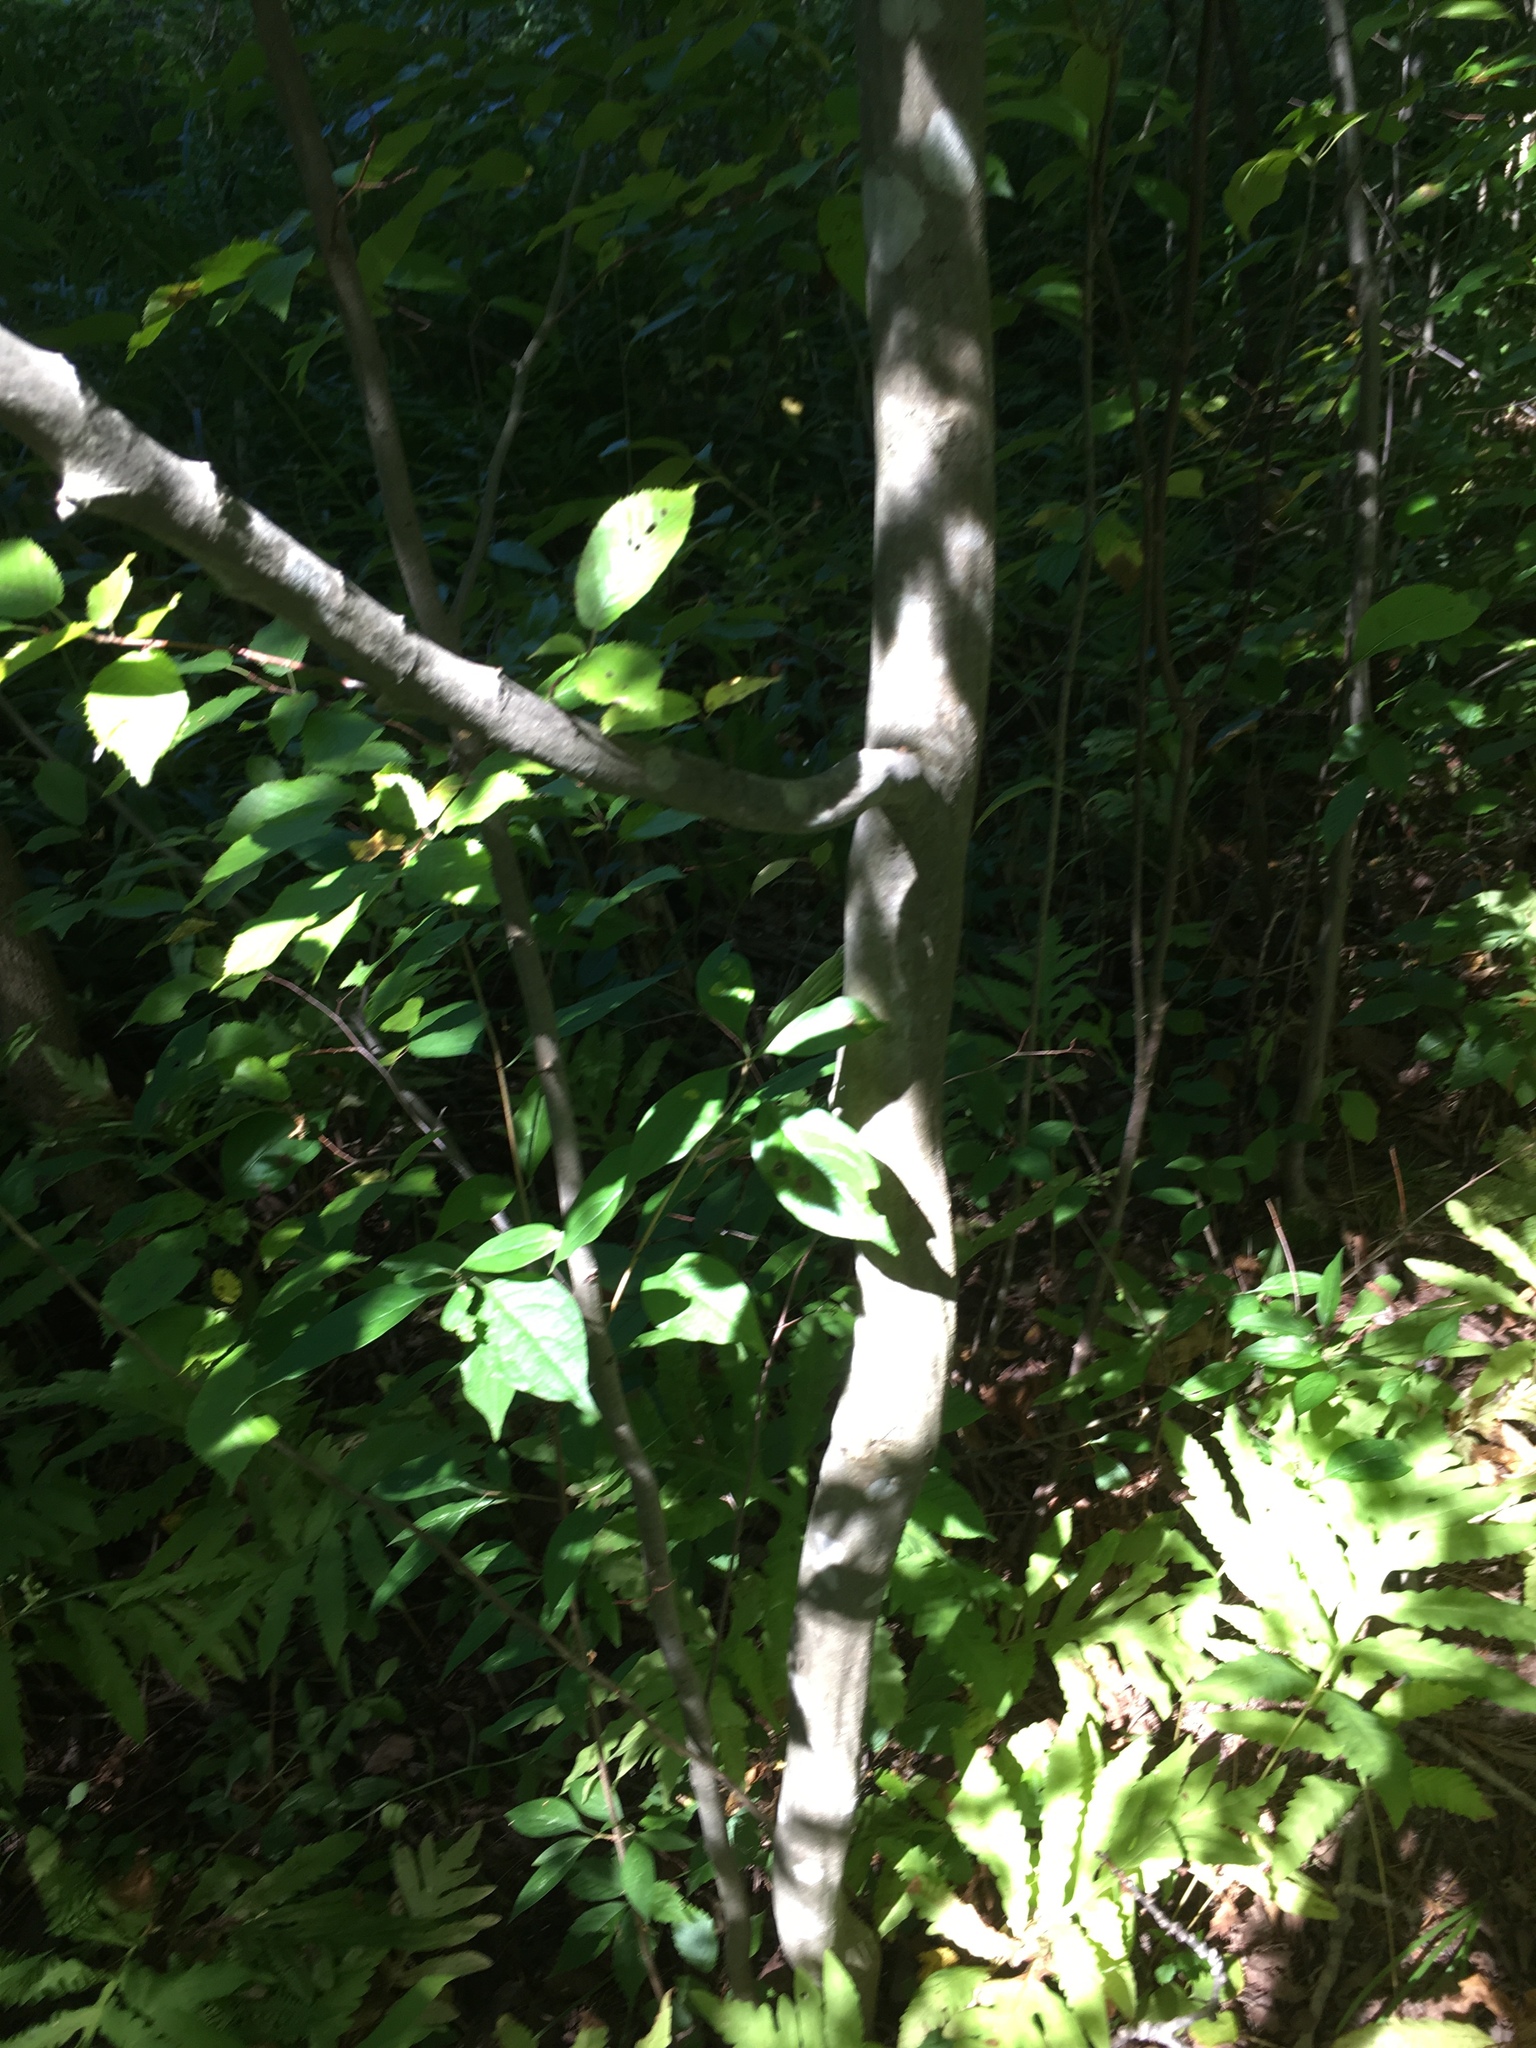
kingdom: Plantae
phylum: Tracheophyta
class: Magnoliopsida
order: Fagales
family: Betulaceae
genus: Carpinus
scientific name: Carpinus caroliniana
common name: American hornbeam
